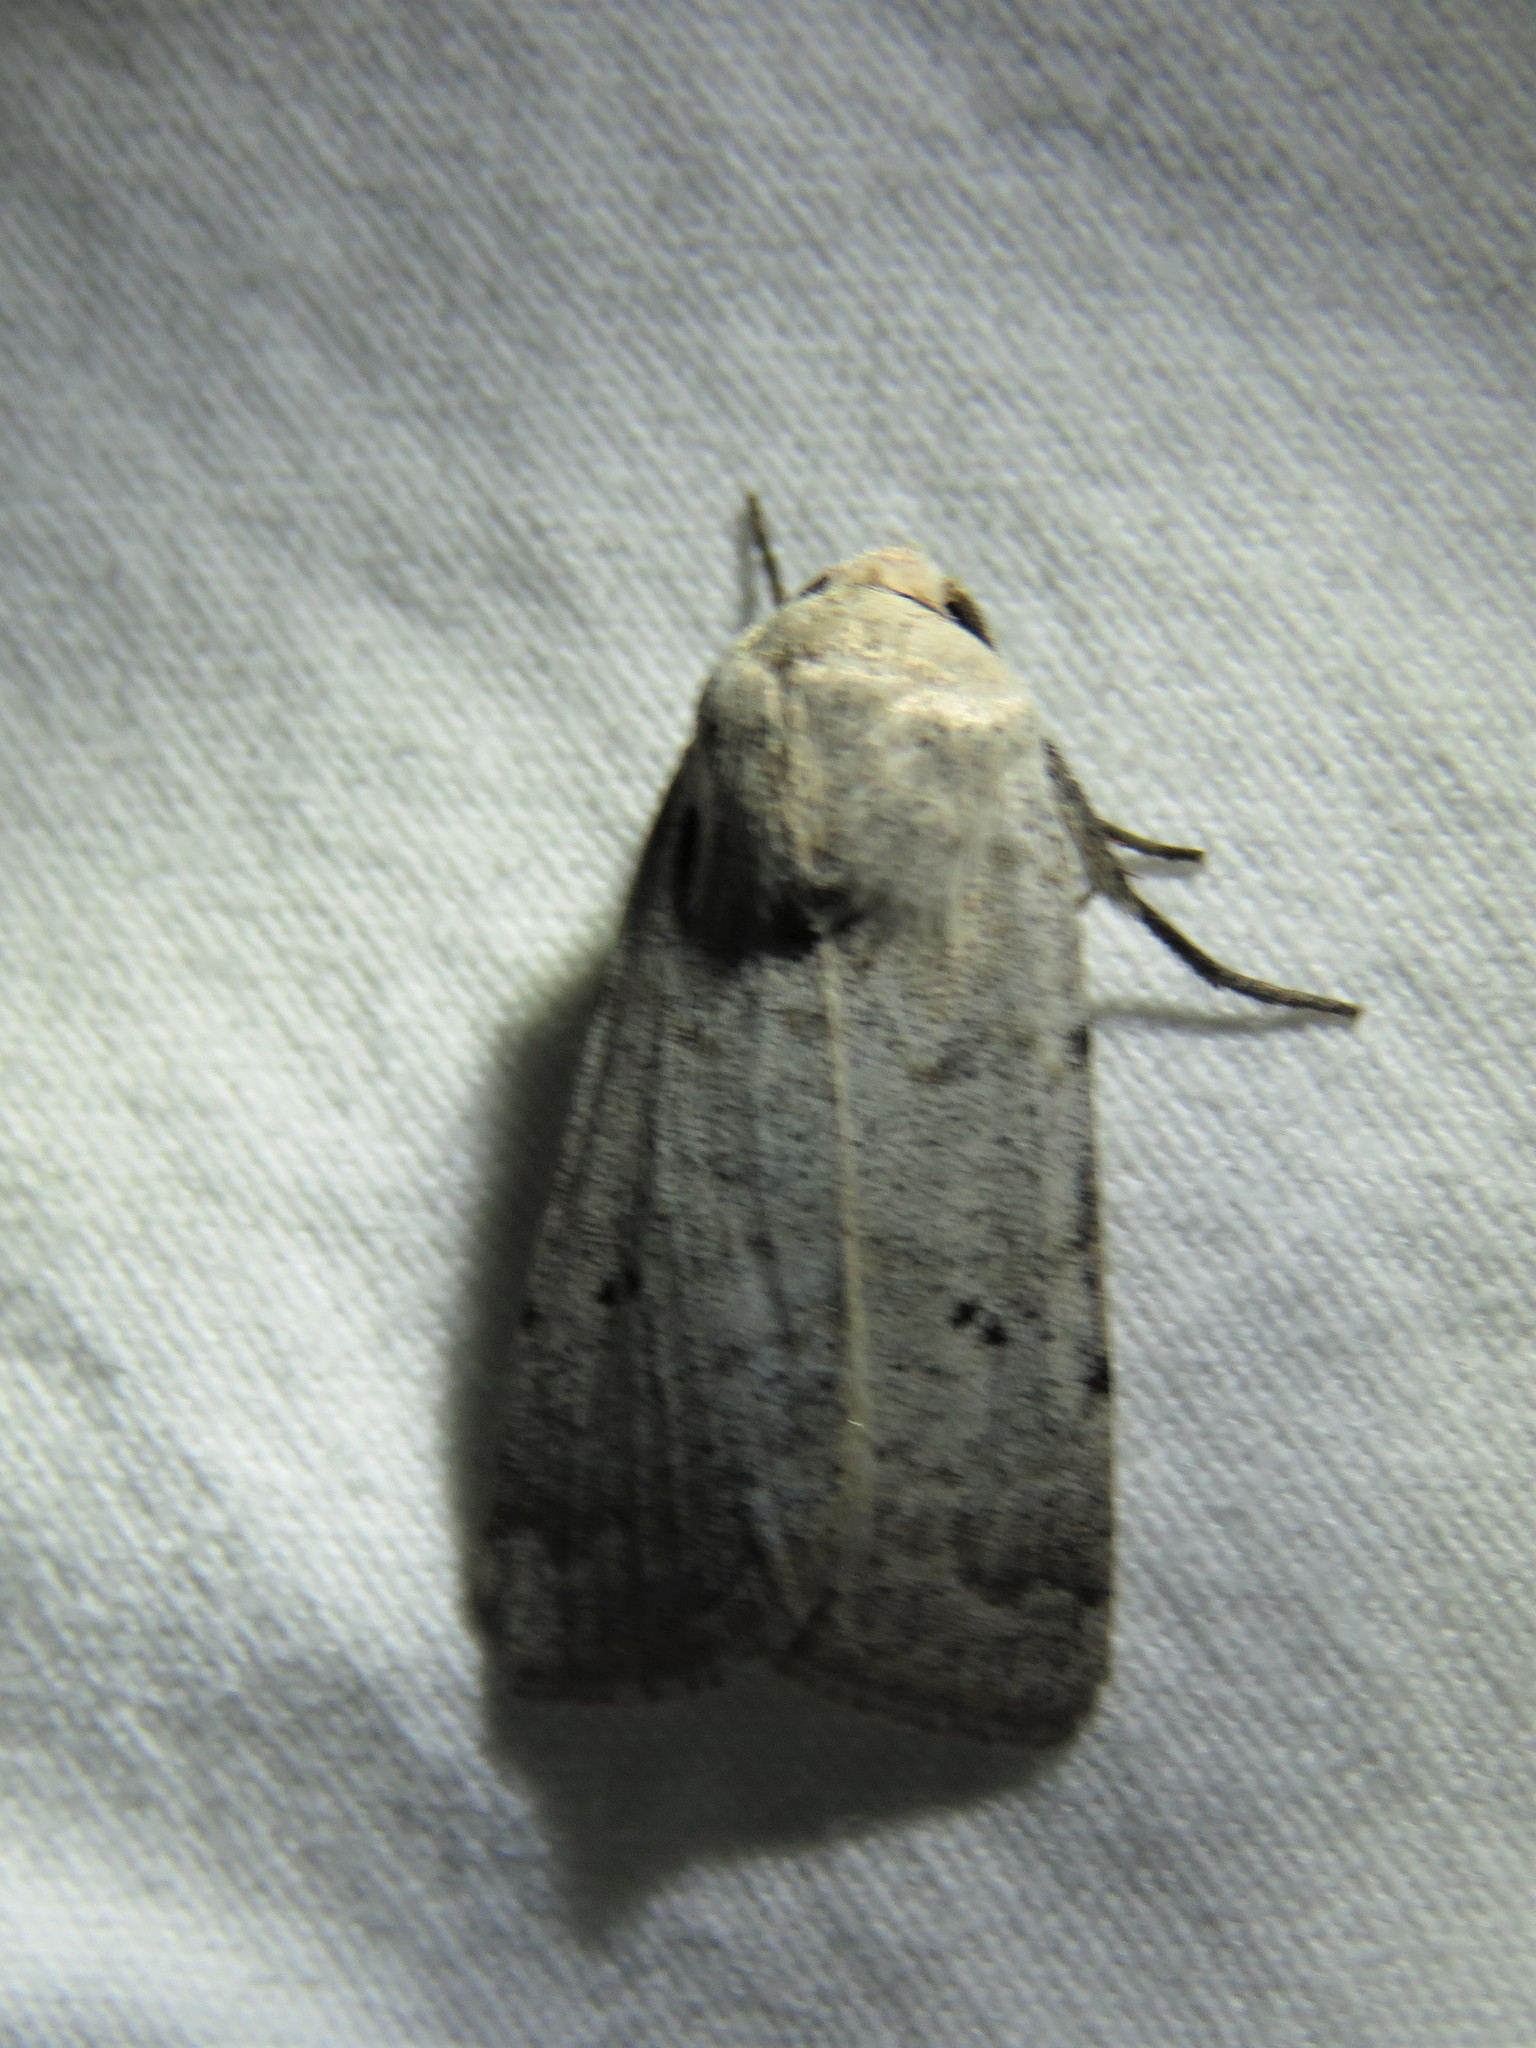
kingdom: Animalia
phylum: Arthropoda
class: Insecta
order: Lepidoptera
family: Noctuidae
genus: Anicla
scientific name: Anicla infecta
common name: Green cutworm
